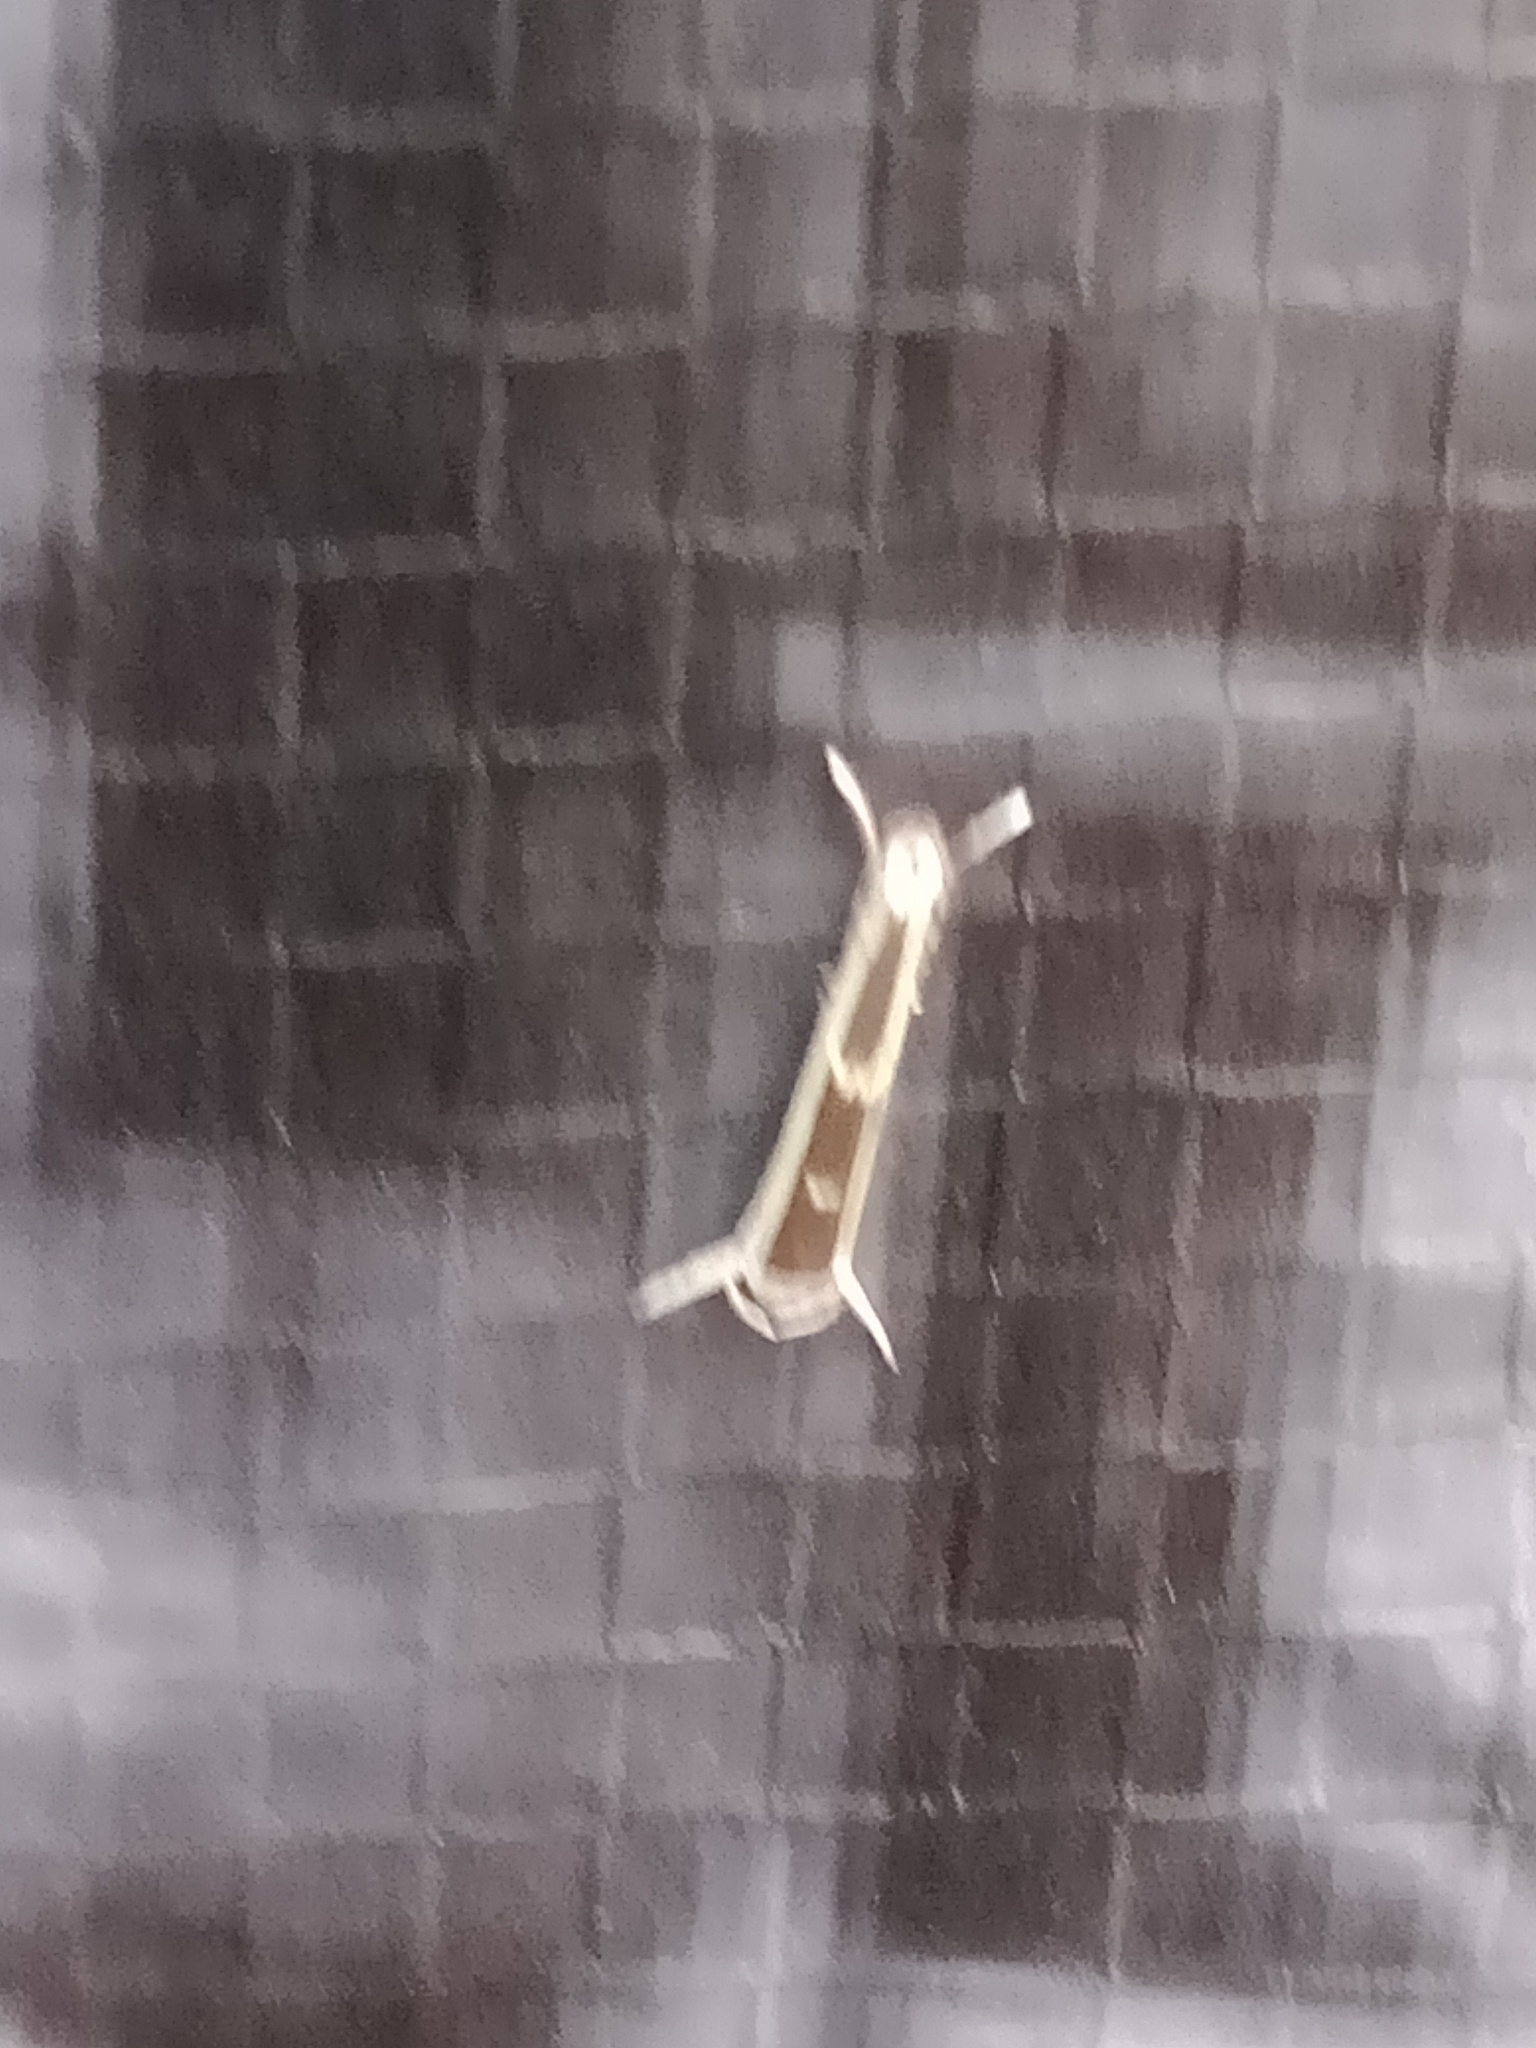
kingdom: Animalia
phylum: Arthropoda
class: Insecta
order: Lepidoptera
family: Roeslerstammiidae
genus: Vanicela
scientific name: Vanicela xenadelpha
